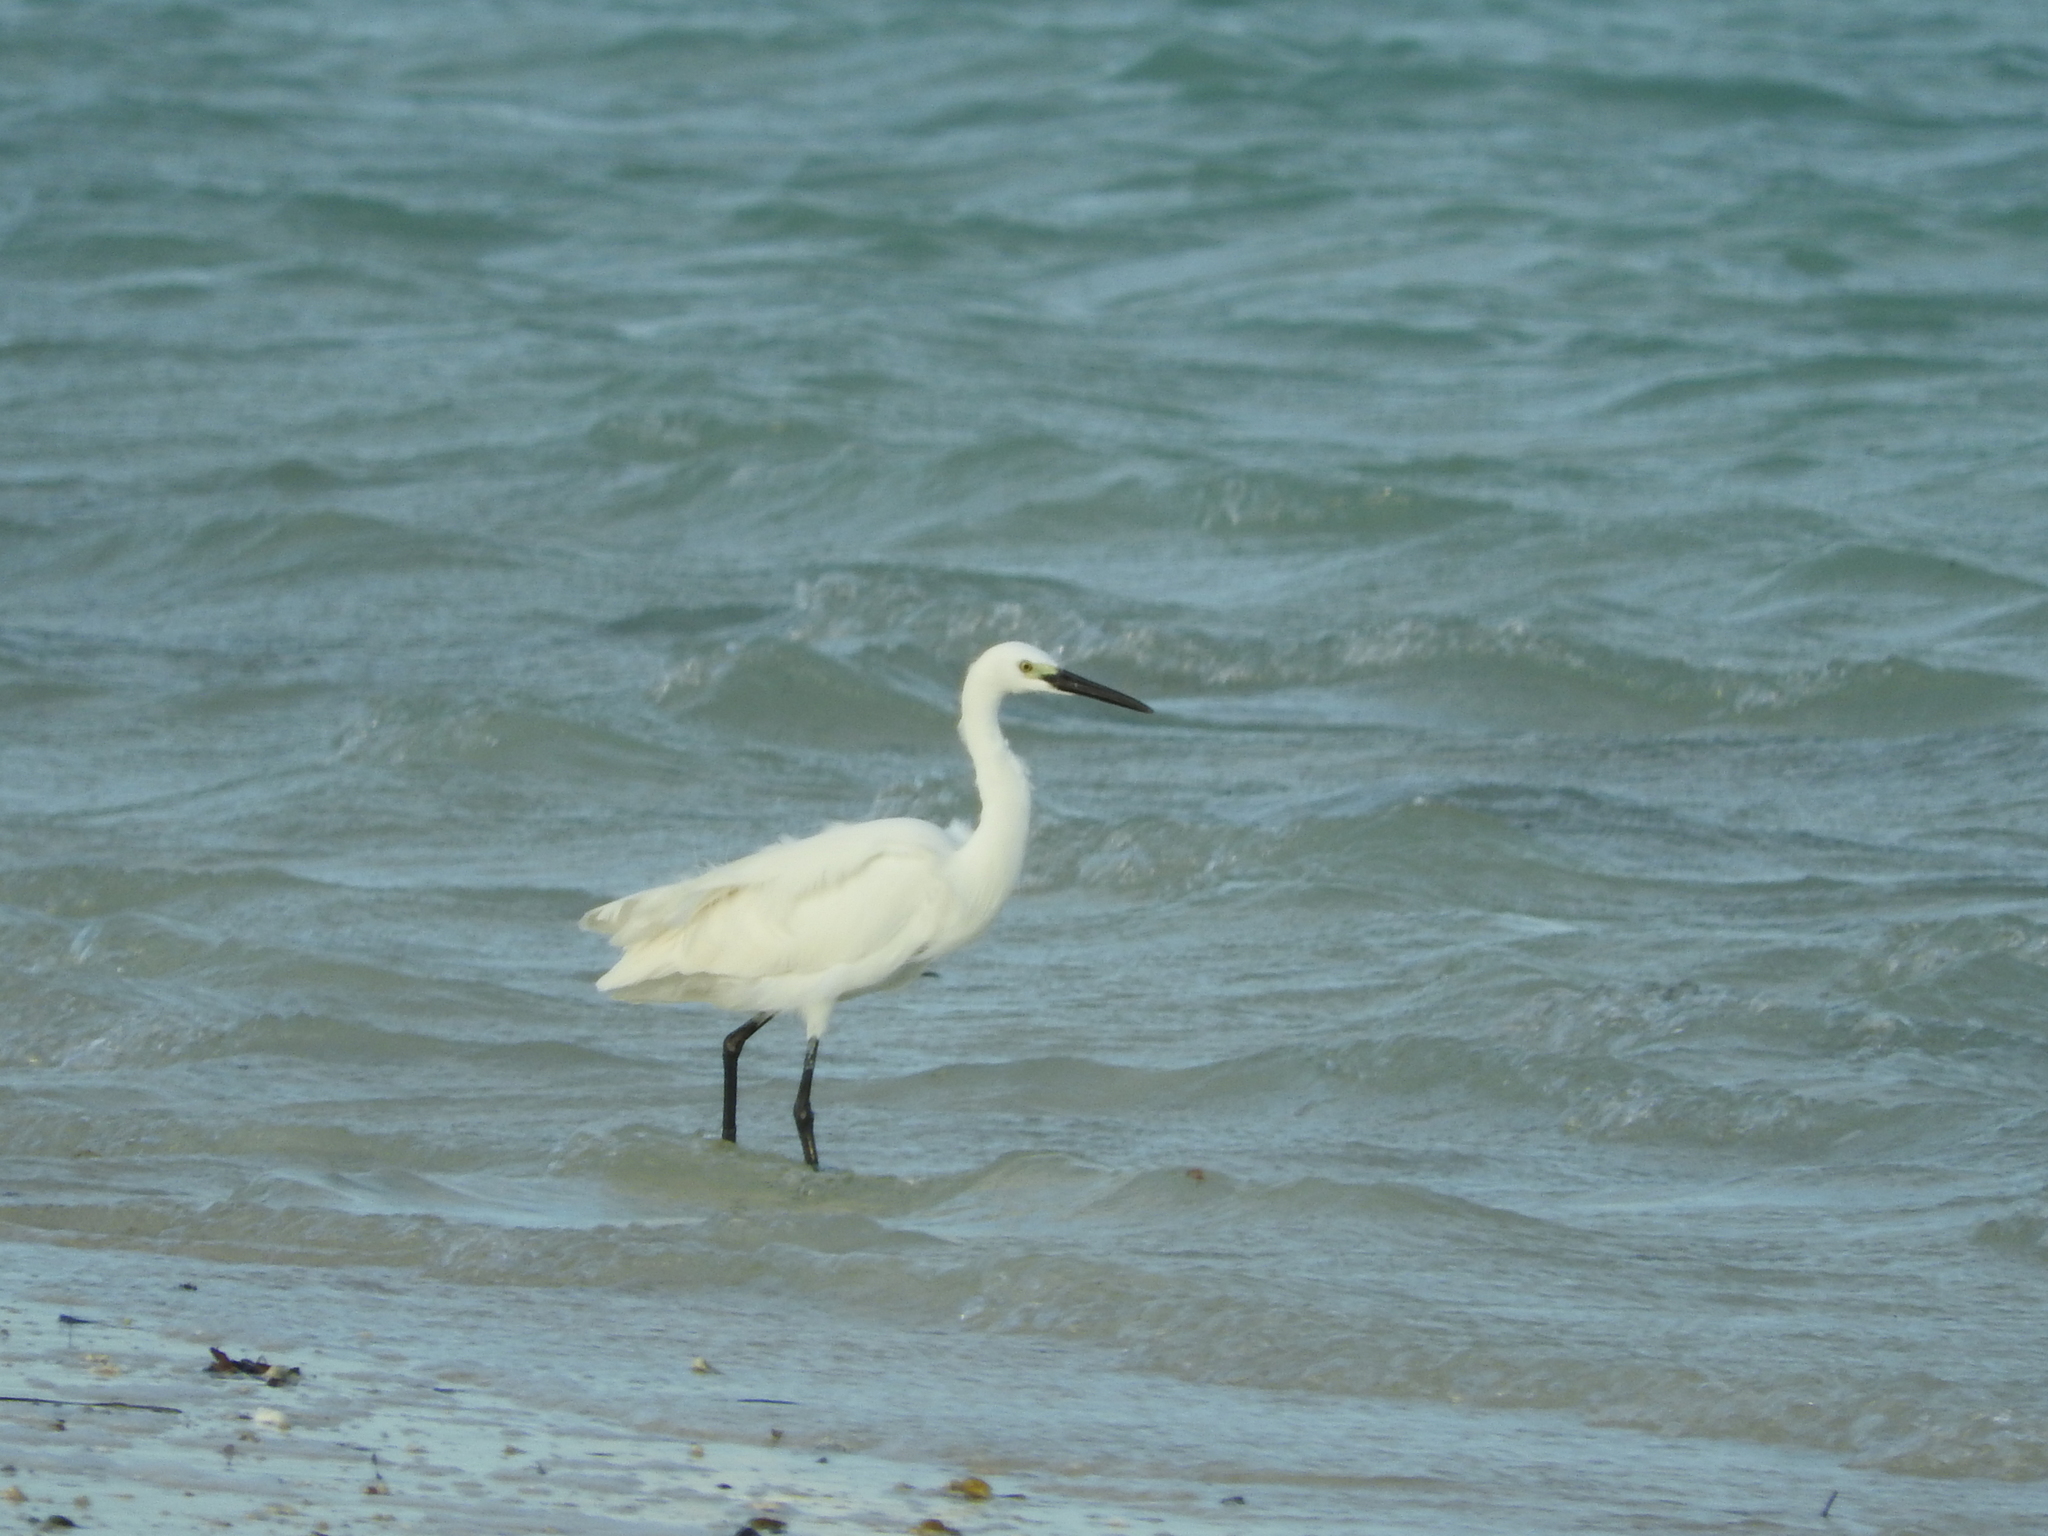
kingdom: Animalia
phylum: Chordata
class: Aves
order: Pelecaniformes
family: Ardeidae
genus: Egretta
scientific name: Egretta garzetta
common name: Little egret
